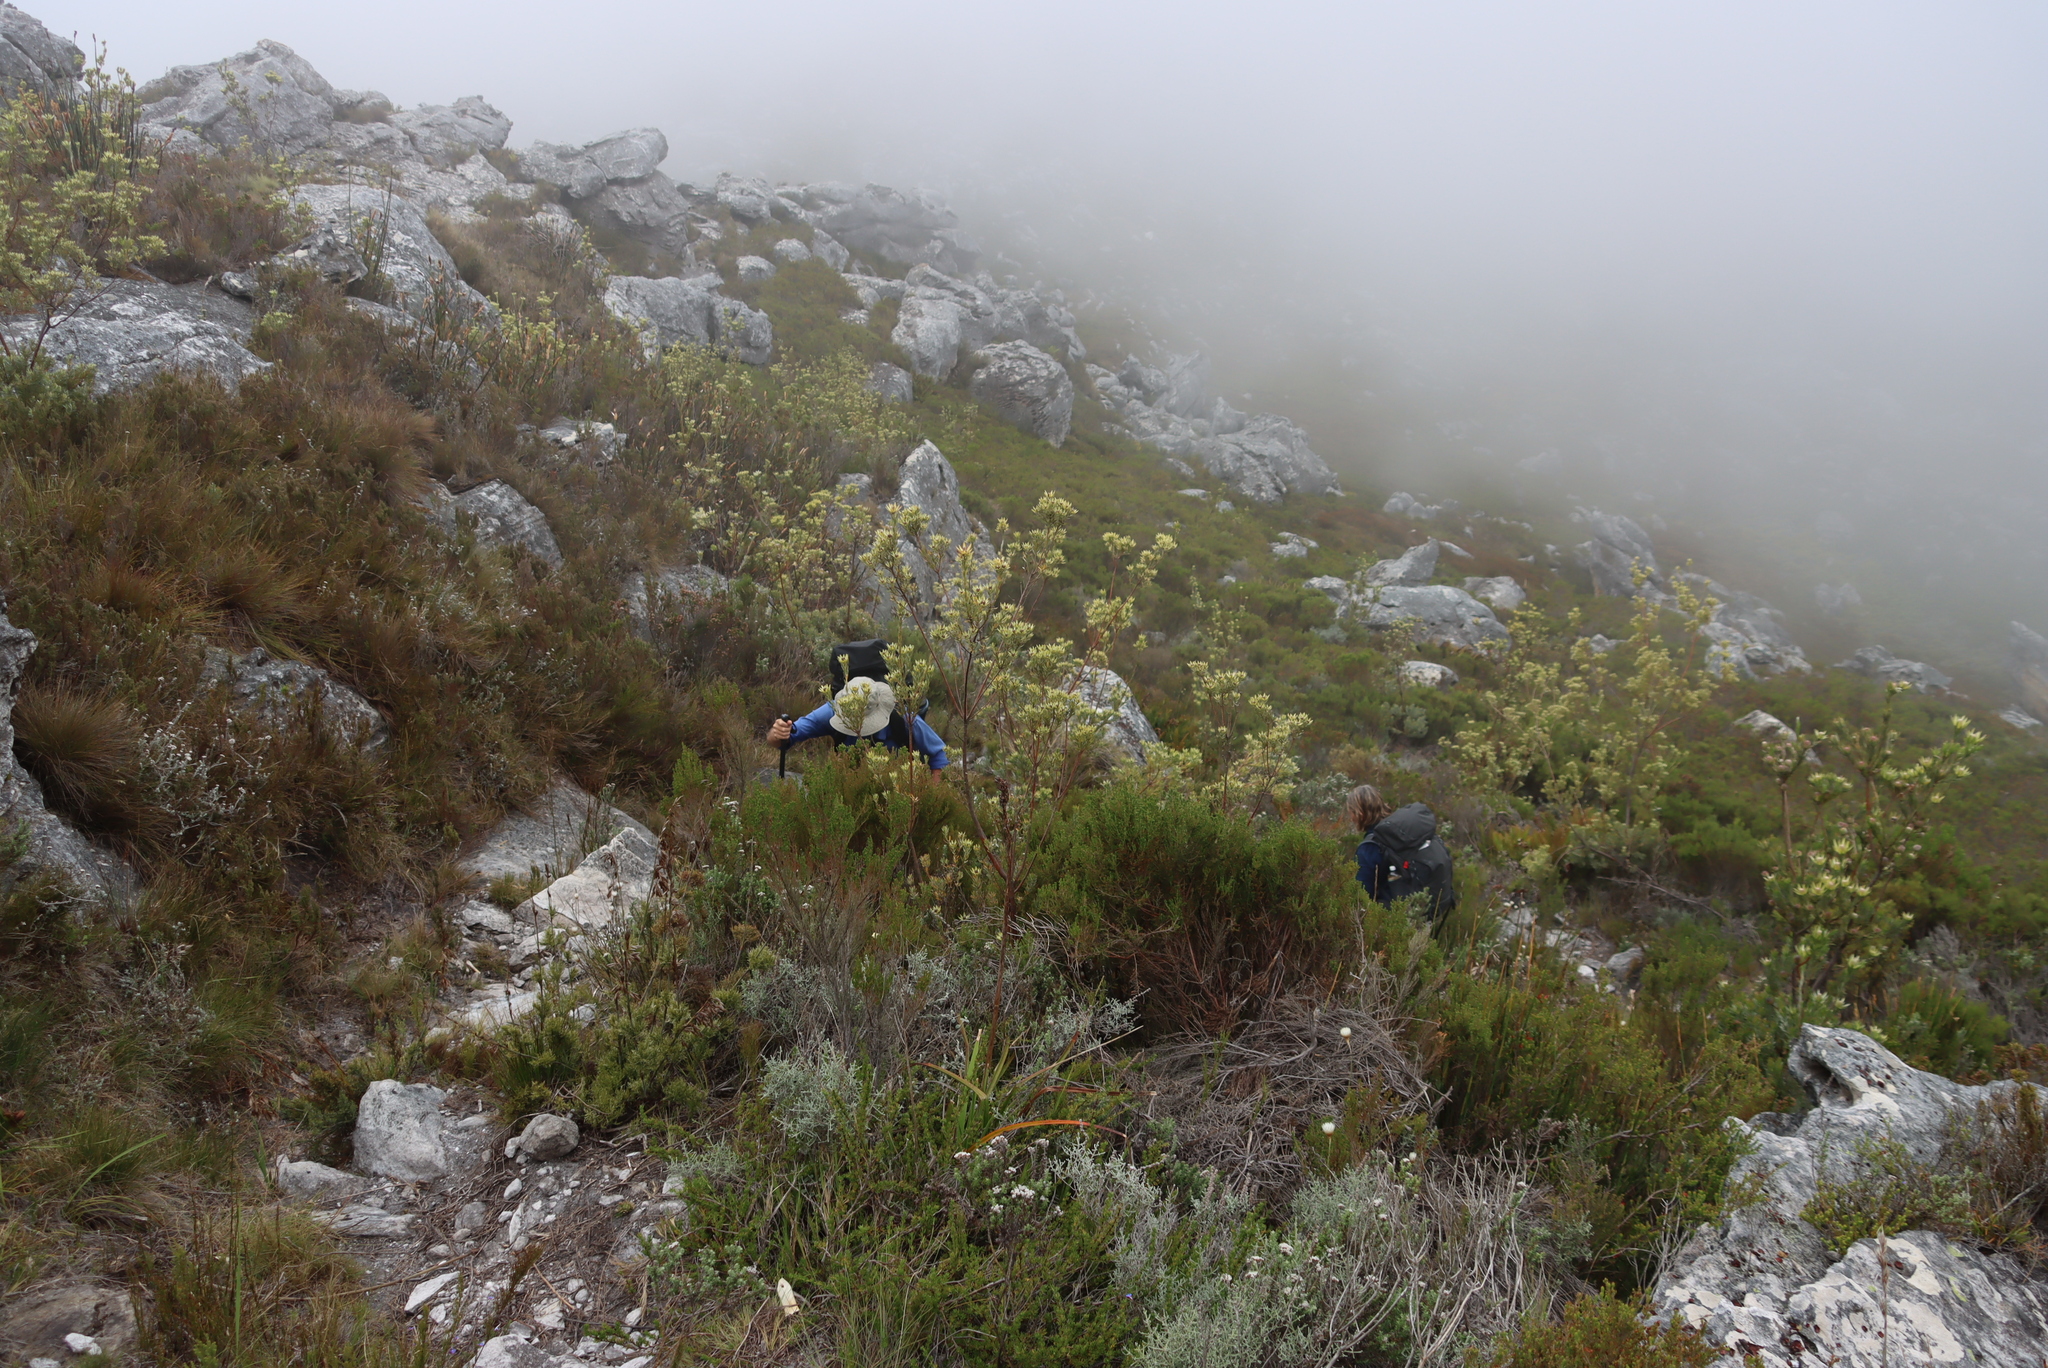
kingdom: Plantae
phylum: Tracheophyta
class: Magnoliopsida
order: Proteales
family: Proteaceae
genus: Leucadendron
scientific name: Leucadendron uliginosum
